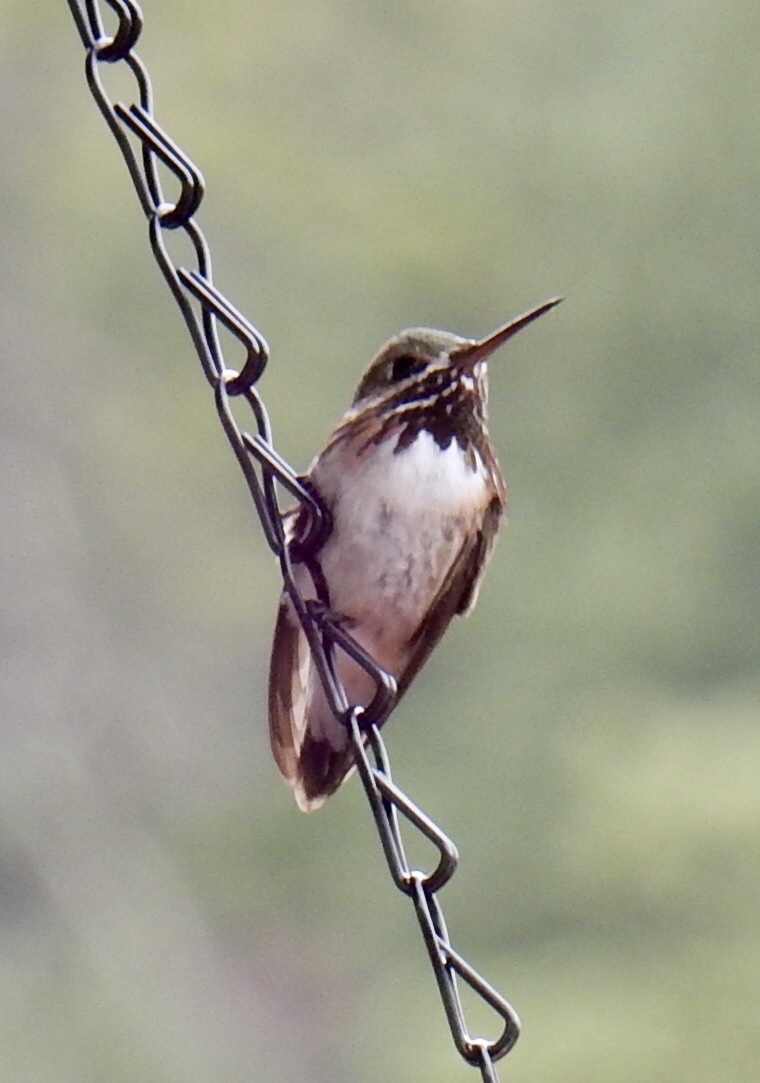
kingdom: Animalia
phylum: Chordata
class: Aves
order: Apodiformes
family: Trochilidae
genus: Selasphorus
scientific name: Selasphorus calliope
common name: Calliope hummingbird
